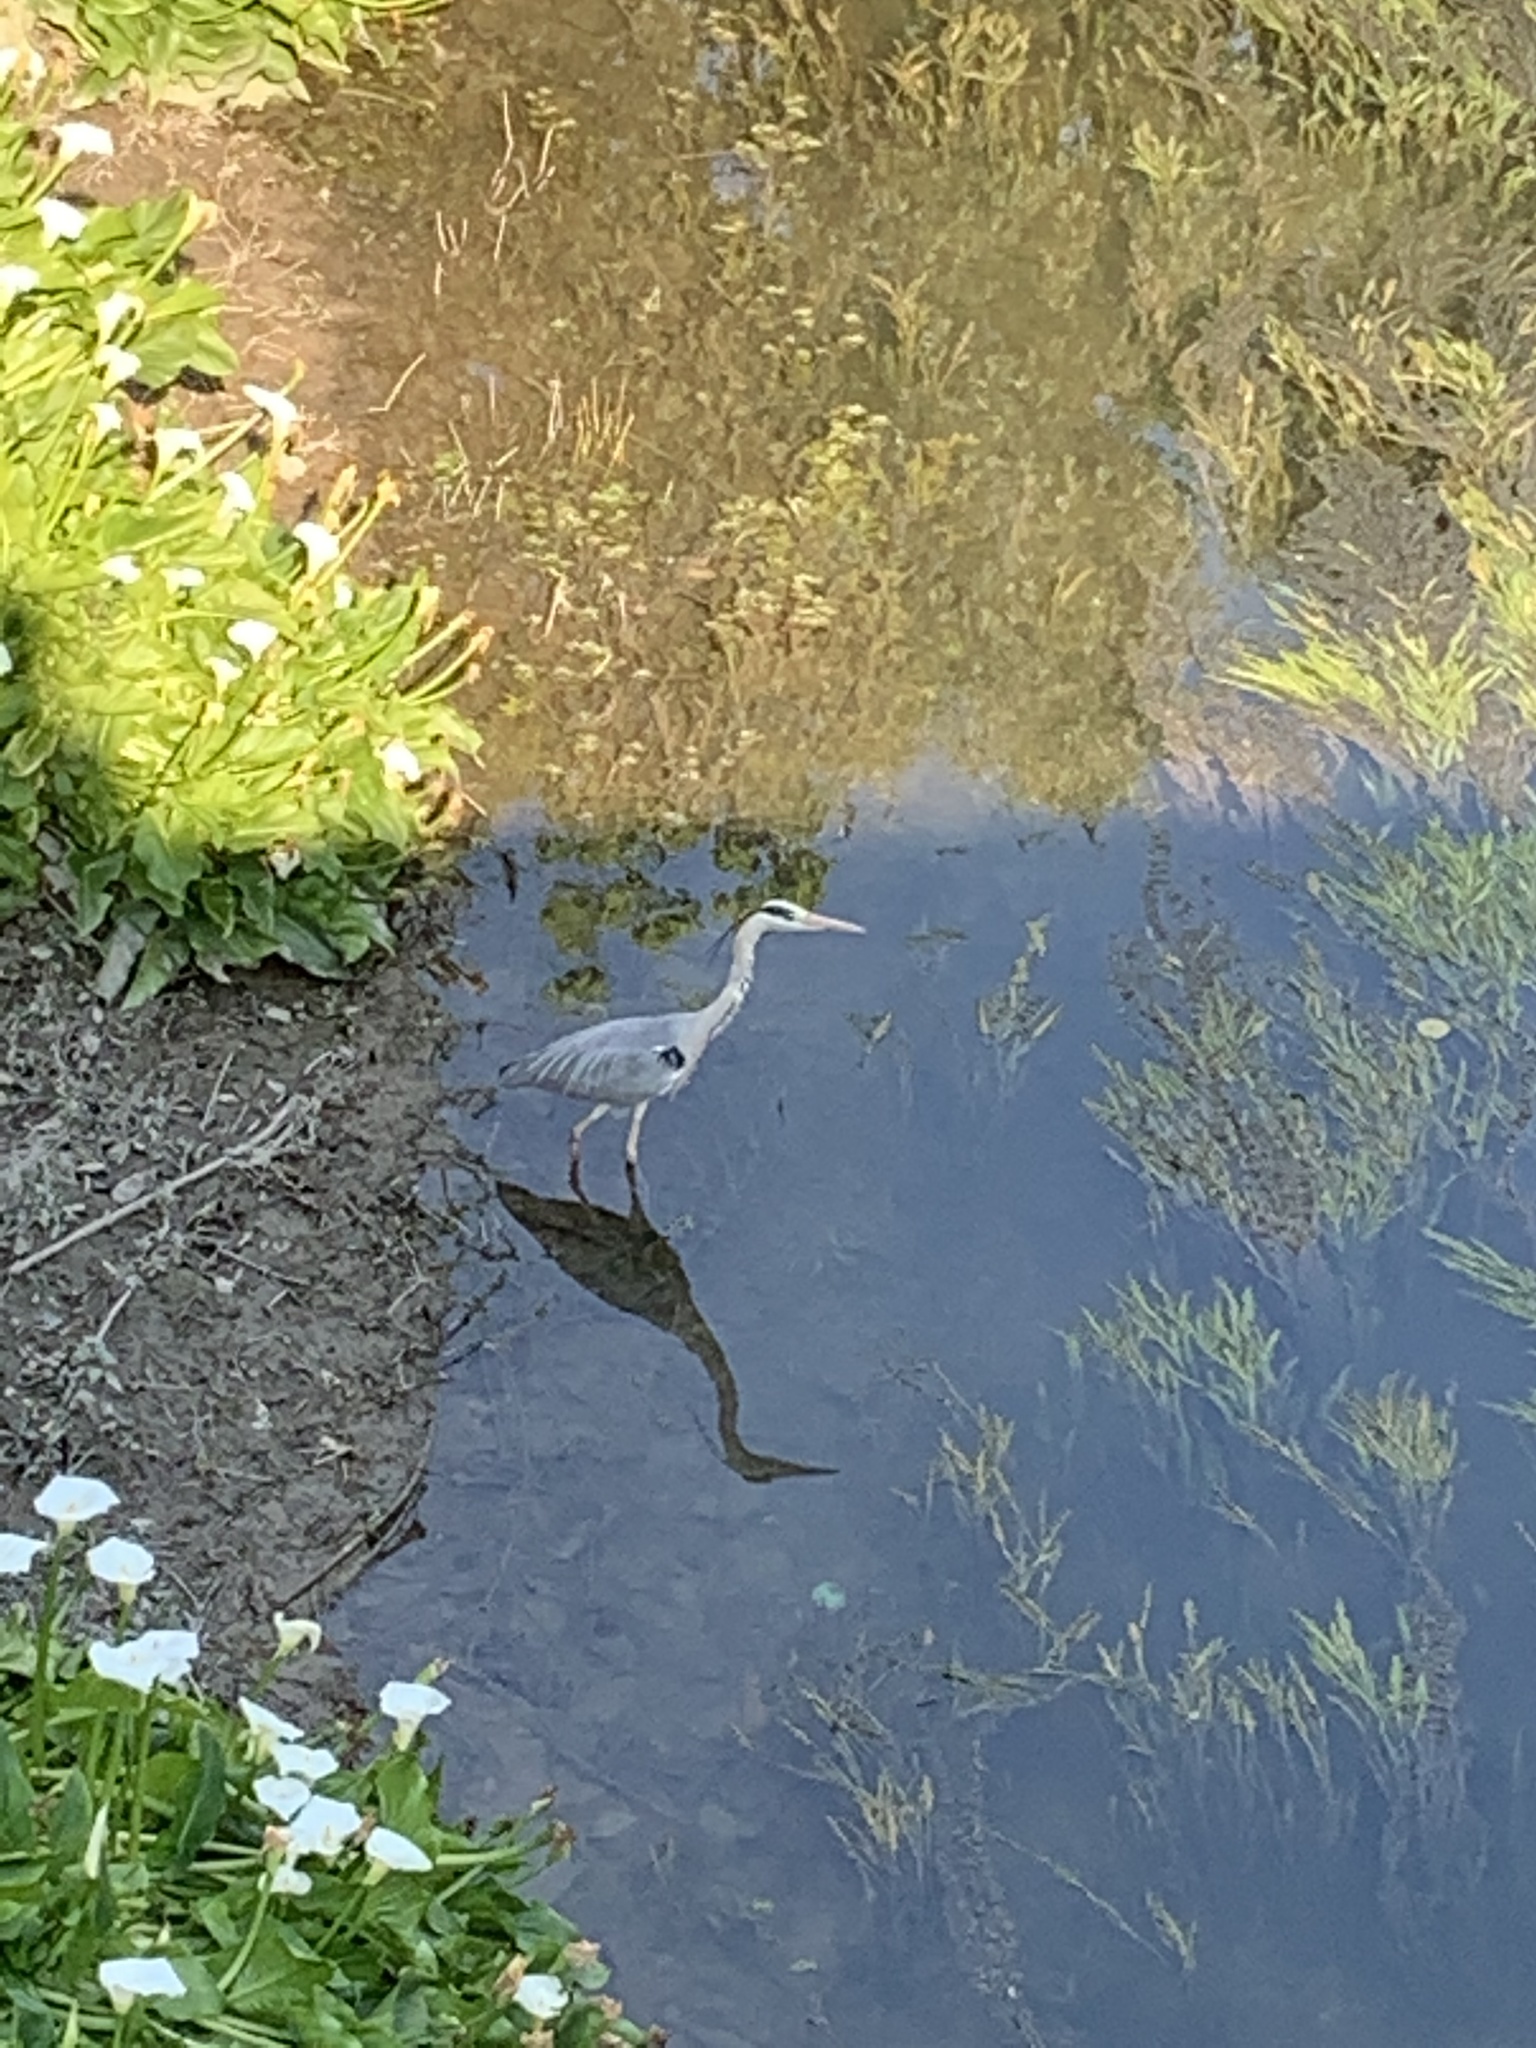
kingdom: Animalia
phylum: Chordata
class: Aves
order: Pelecaniformes
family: Ardeidae
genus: Ardea
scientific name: Ardea cinerea
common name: Grey heron
